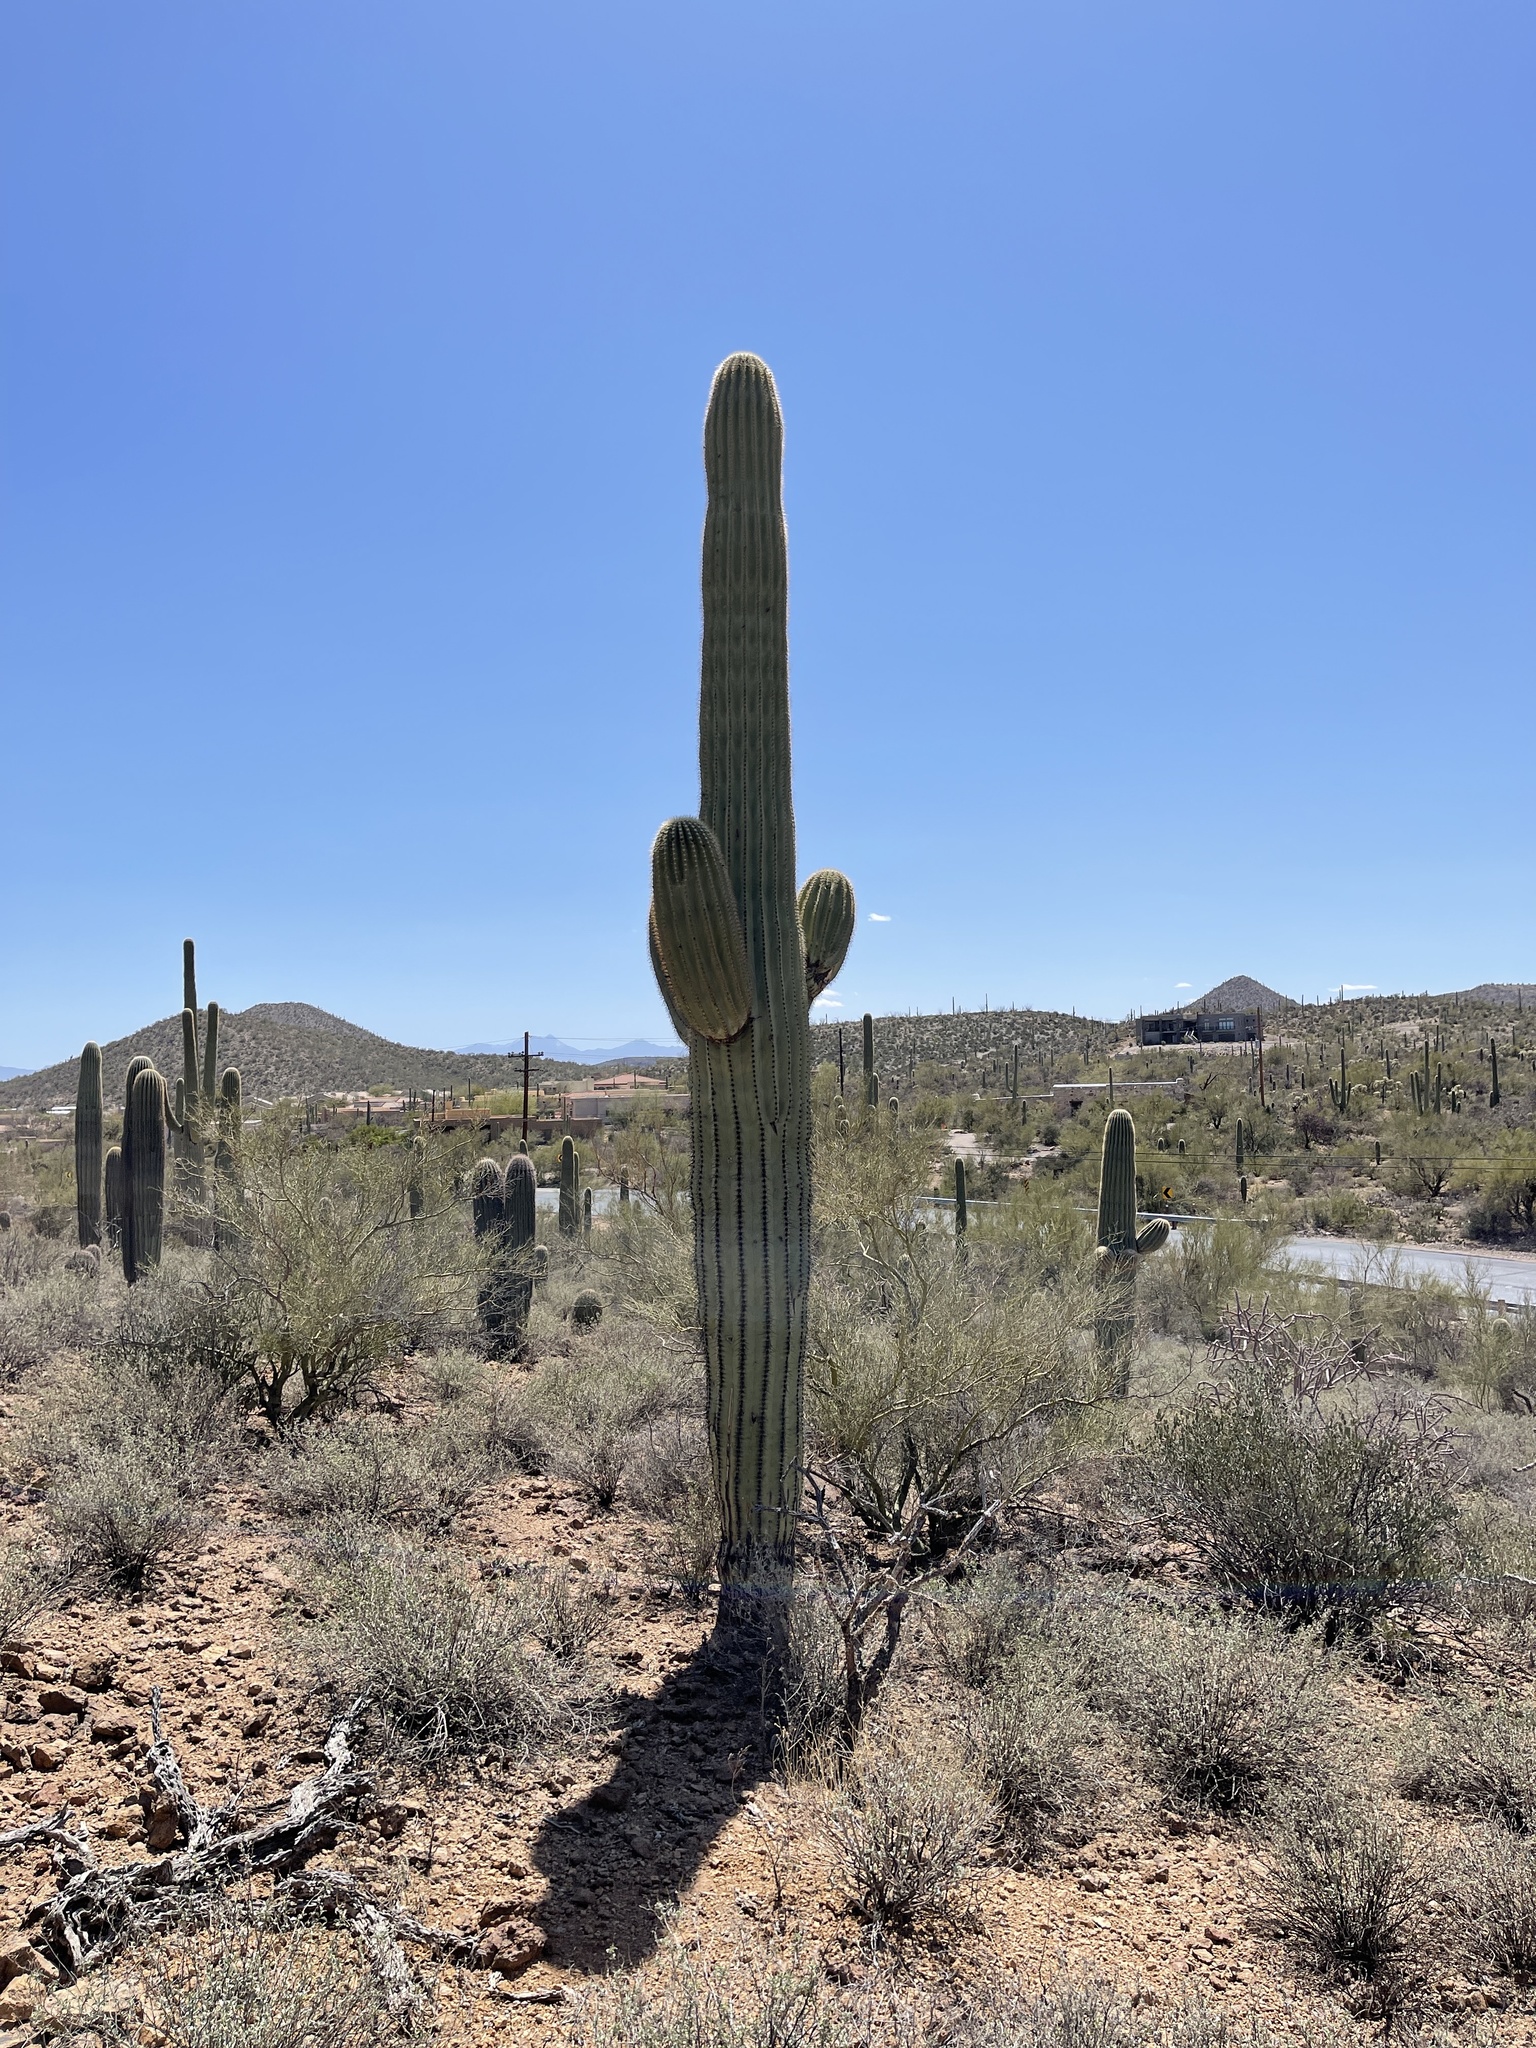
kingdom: Plantae
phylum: Tracheophyta
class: Magnoliopsida
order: Caryophyllales
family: Cactaceae
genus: Carnegiea
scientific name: Carnegiea gigantea
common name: Saguaro
